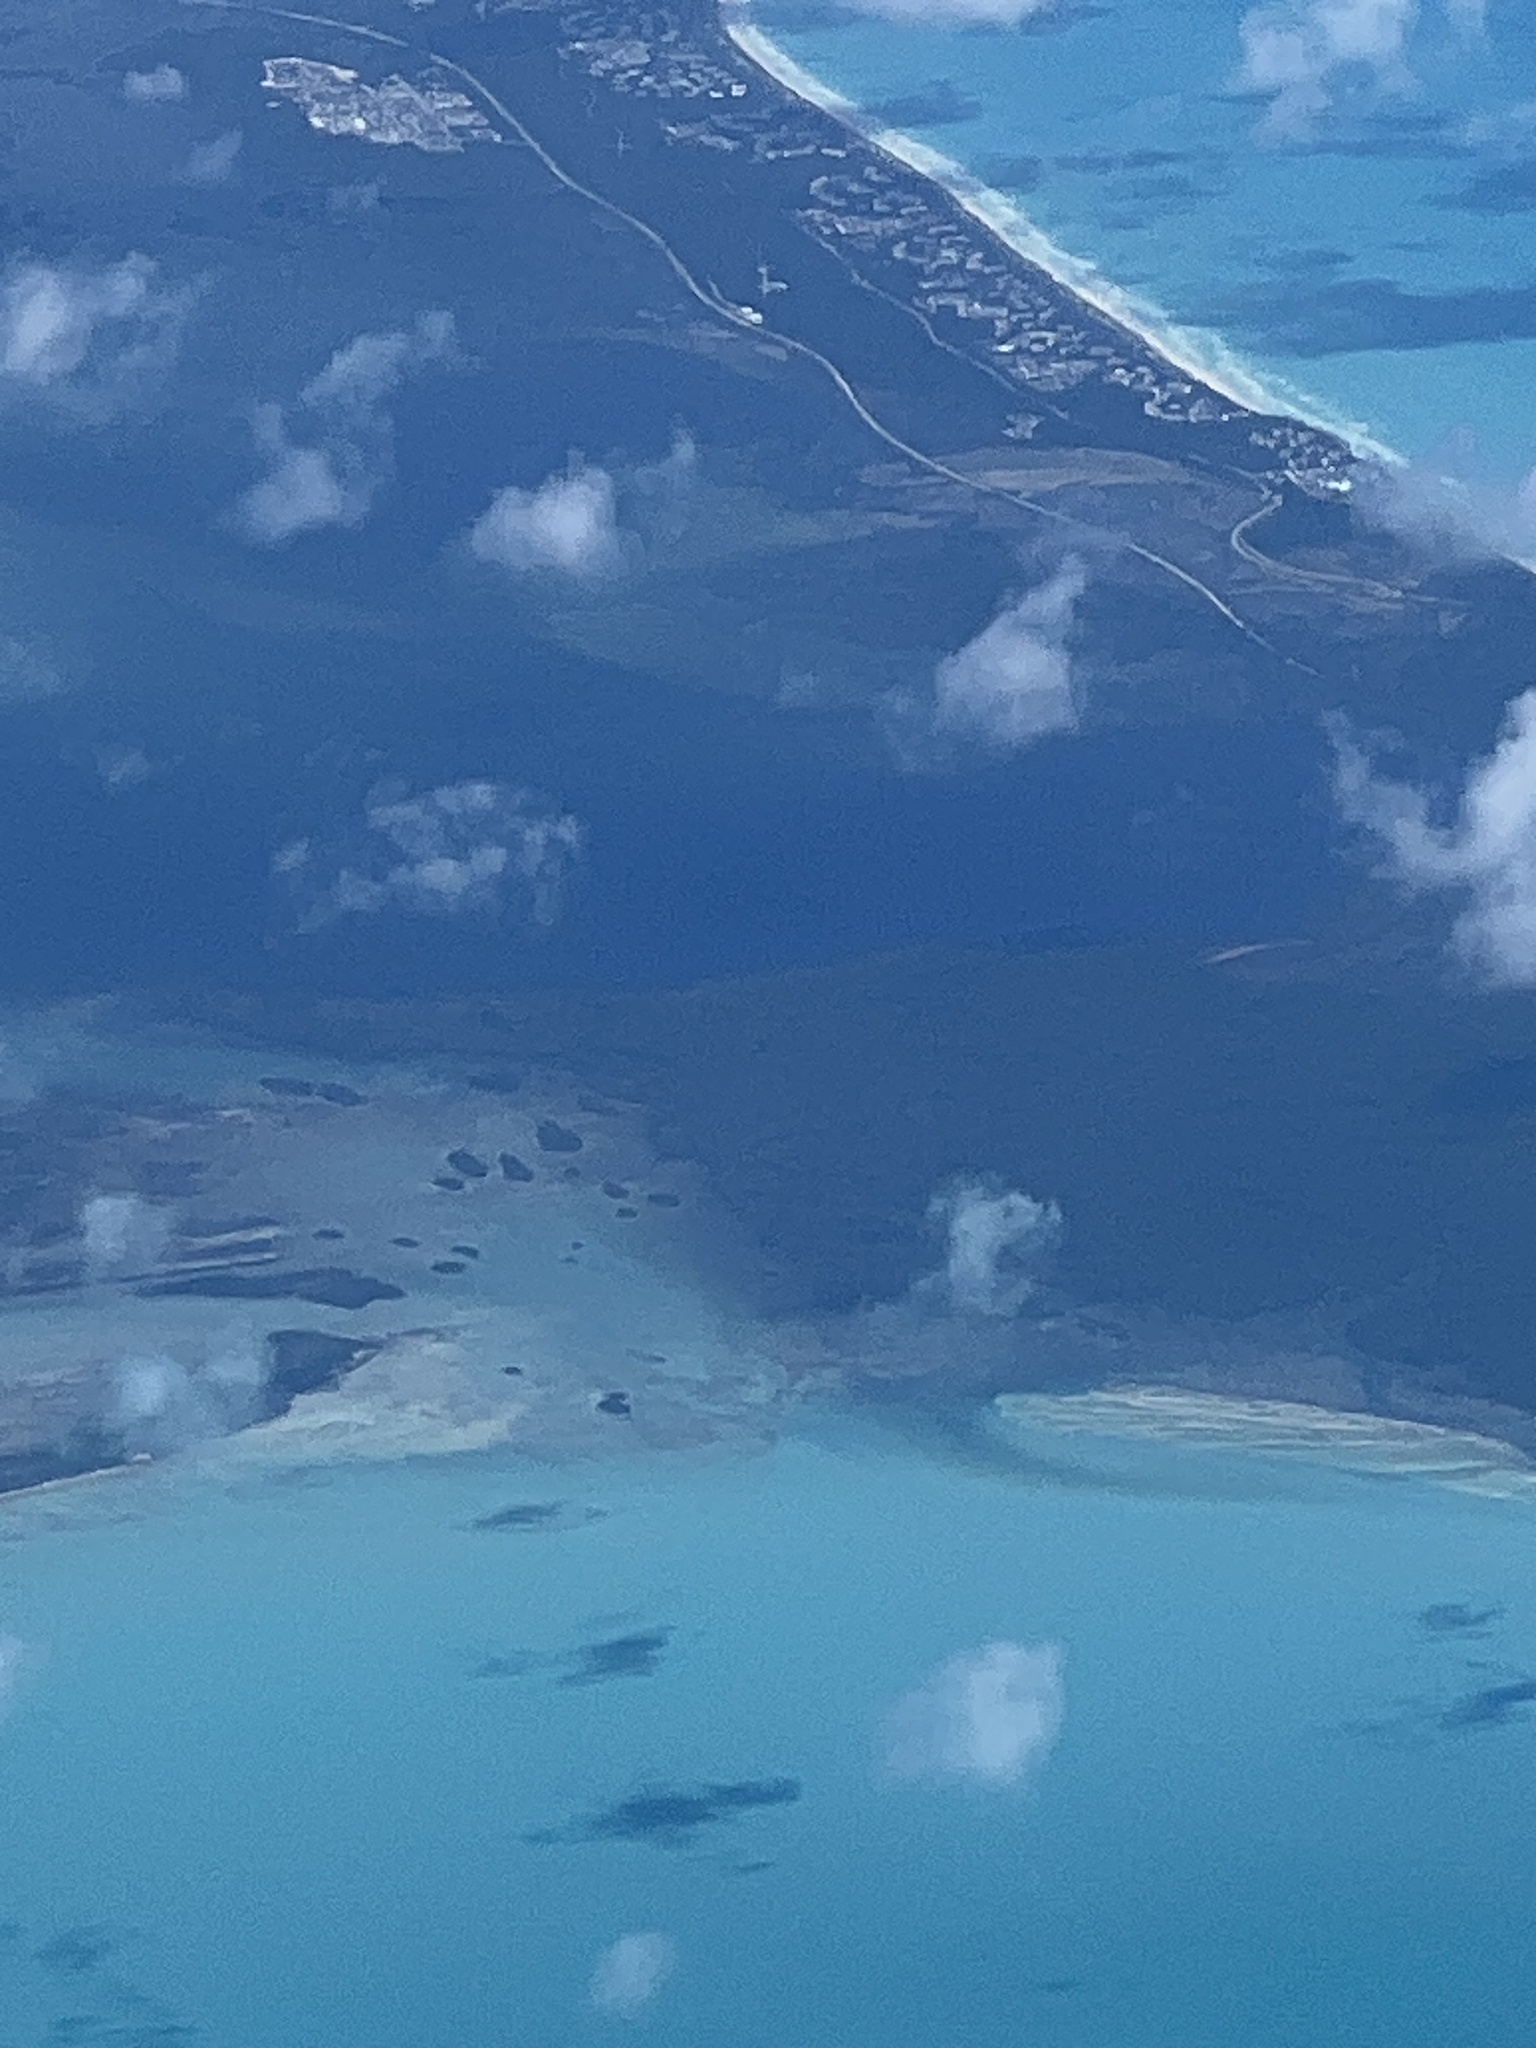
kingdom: Plantae
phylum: Tracheophyta
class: Magnoliopsida
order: Malpighiales
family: Rhizophoraceae
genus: Rhizophora
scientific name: Rhizophora mangle
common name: Red mangrove
